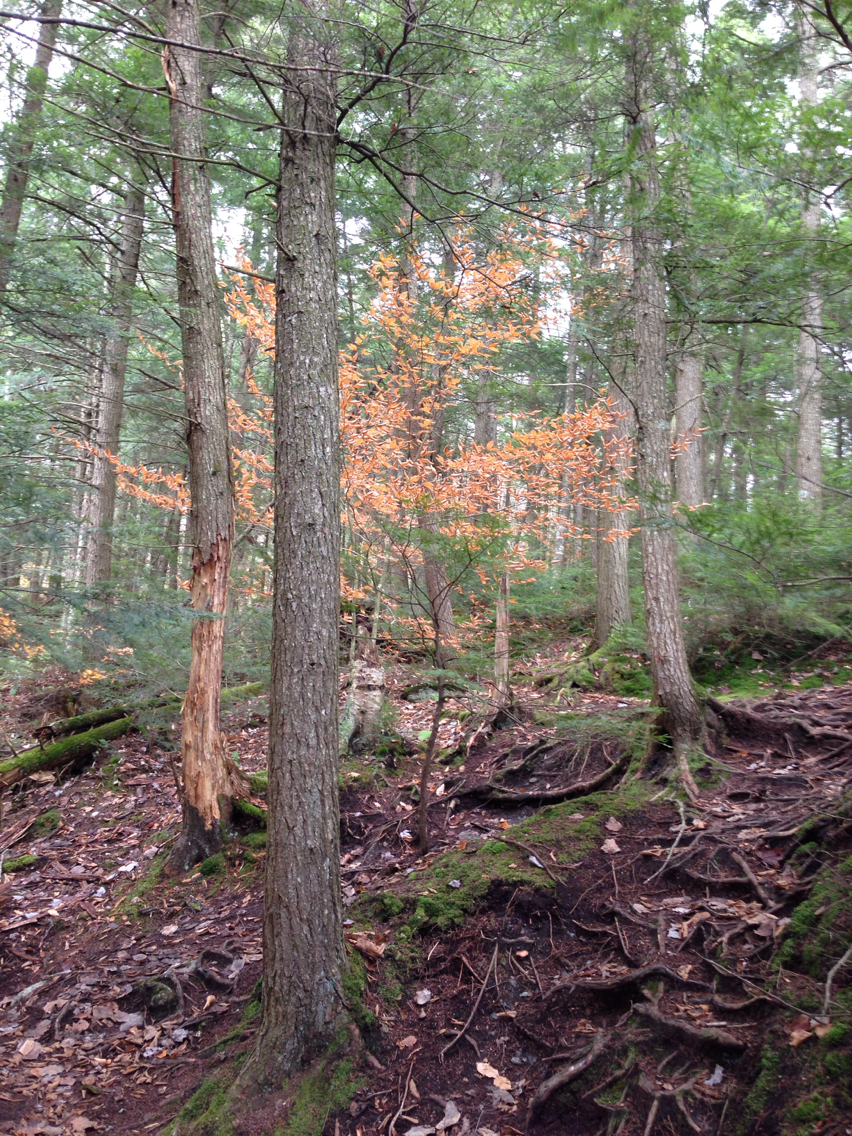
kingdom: Plantae
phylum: Tracheophyta
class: Magnoliopsida
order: Fagales
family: Fagaceae
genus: Fagus
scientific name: Fagus grandifolia
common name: American beech
